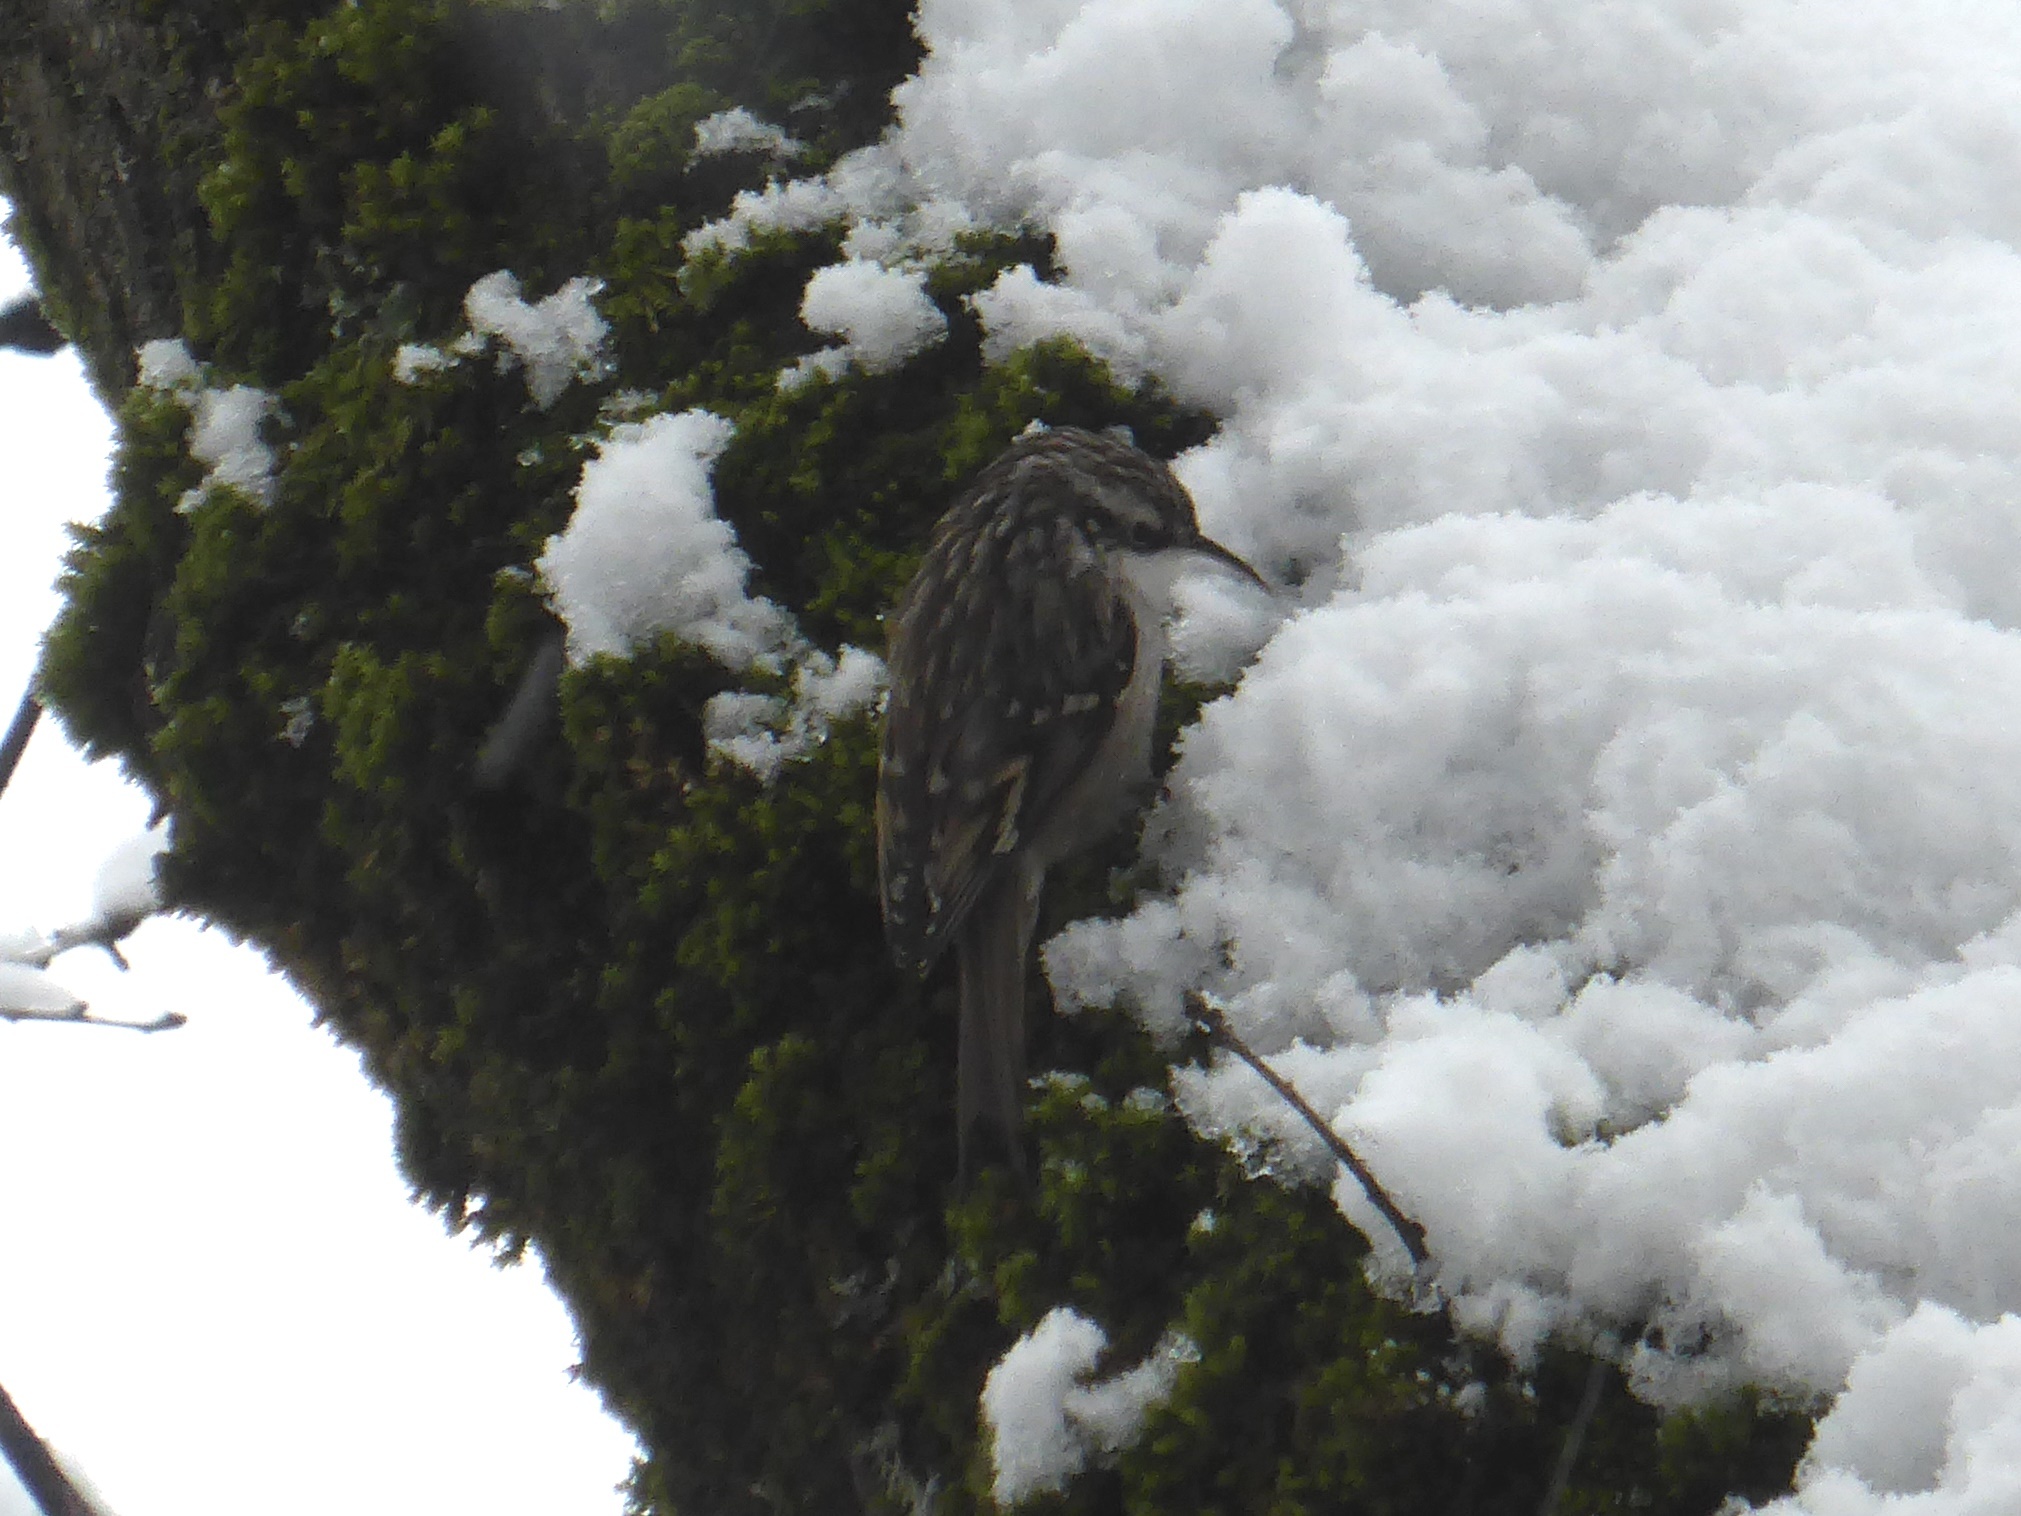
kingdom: Animalia
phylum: Chordata
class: Aves
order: Passeriformes
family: Certhiidae
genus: Certhia
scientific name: Certhia brachydactyla
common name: Short-toed treecreeper
